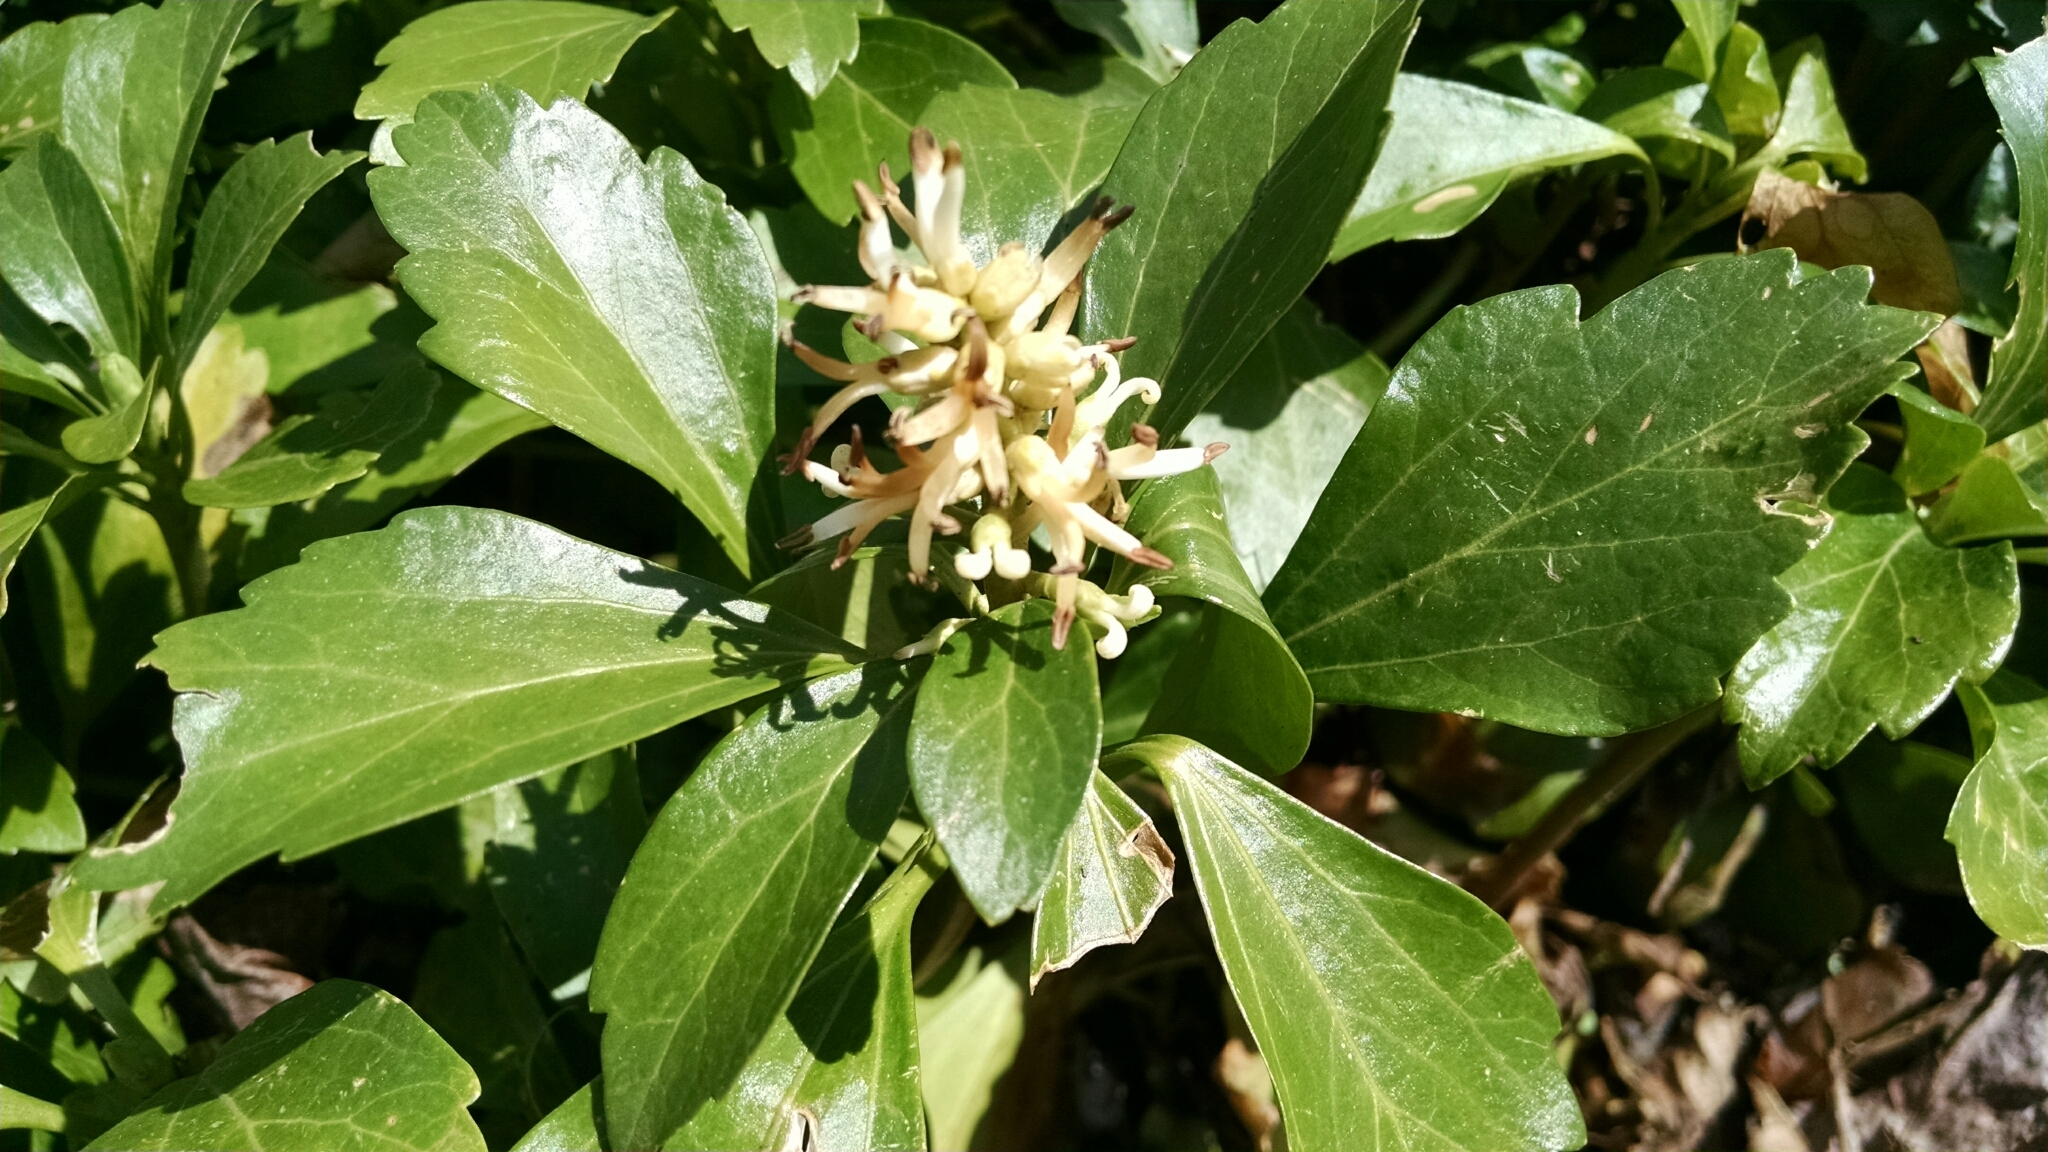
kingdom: Plantae
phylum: Tracheophyta
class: Magnoliopsida
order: Buxales
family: Buxaceae
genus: Pachysandra
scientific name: Pachysandra terminalis
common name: Japanese pachysandra
